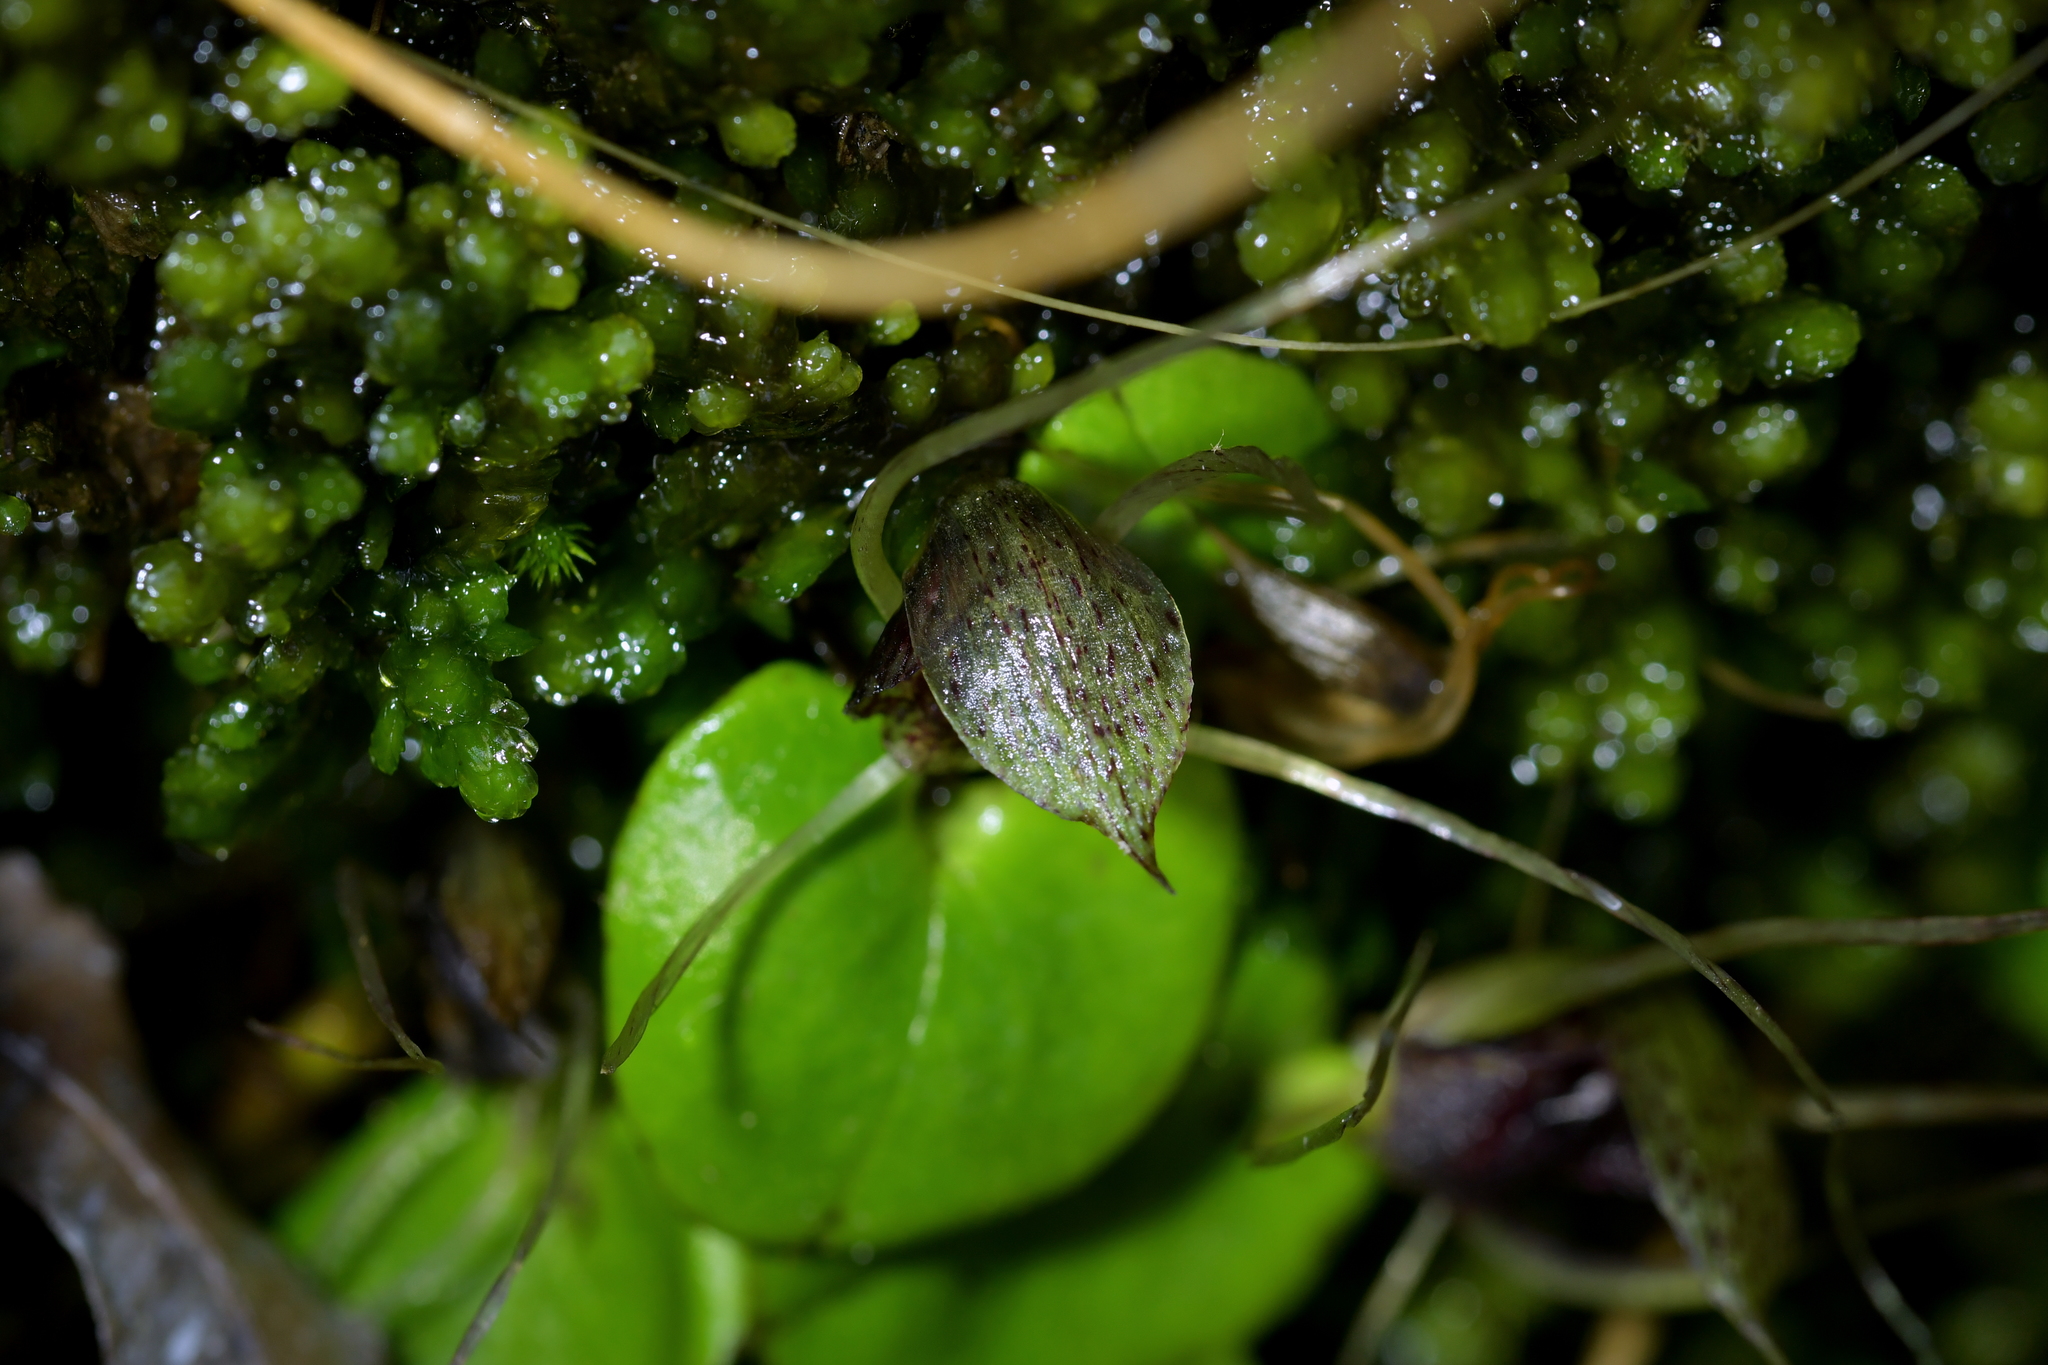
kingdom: Plantae
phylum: Tracheophyta
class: Liliopsida
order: Asparagales
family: Orchidaceae
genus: Corybas
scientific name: Corybas hatchii
